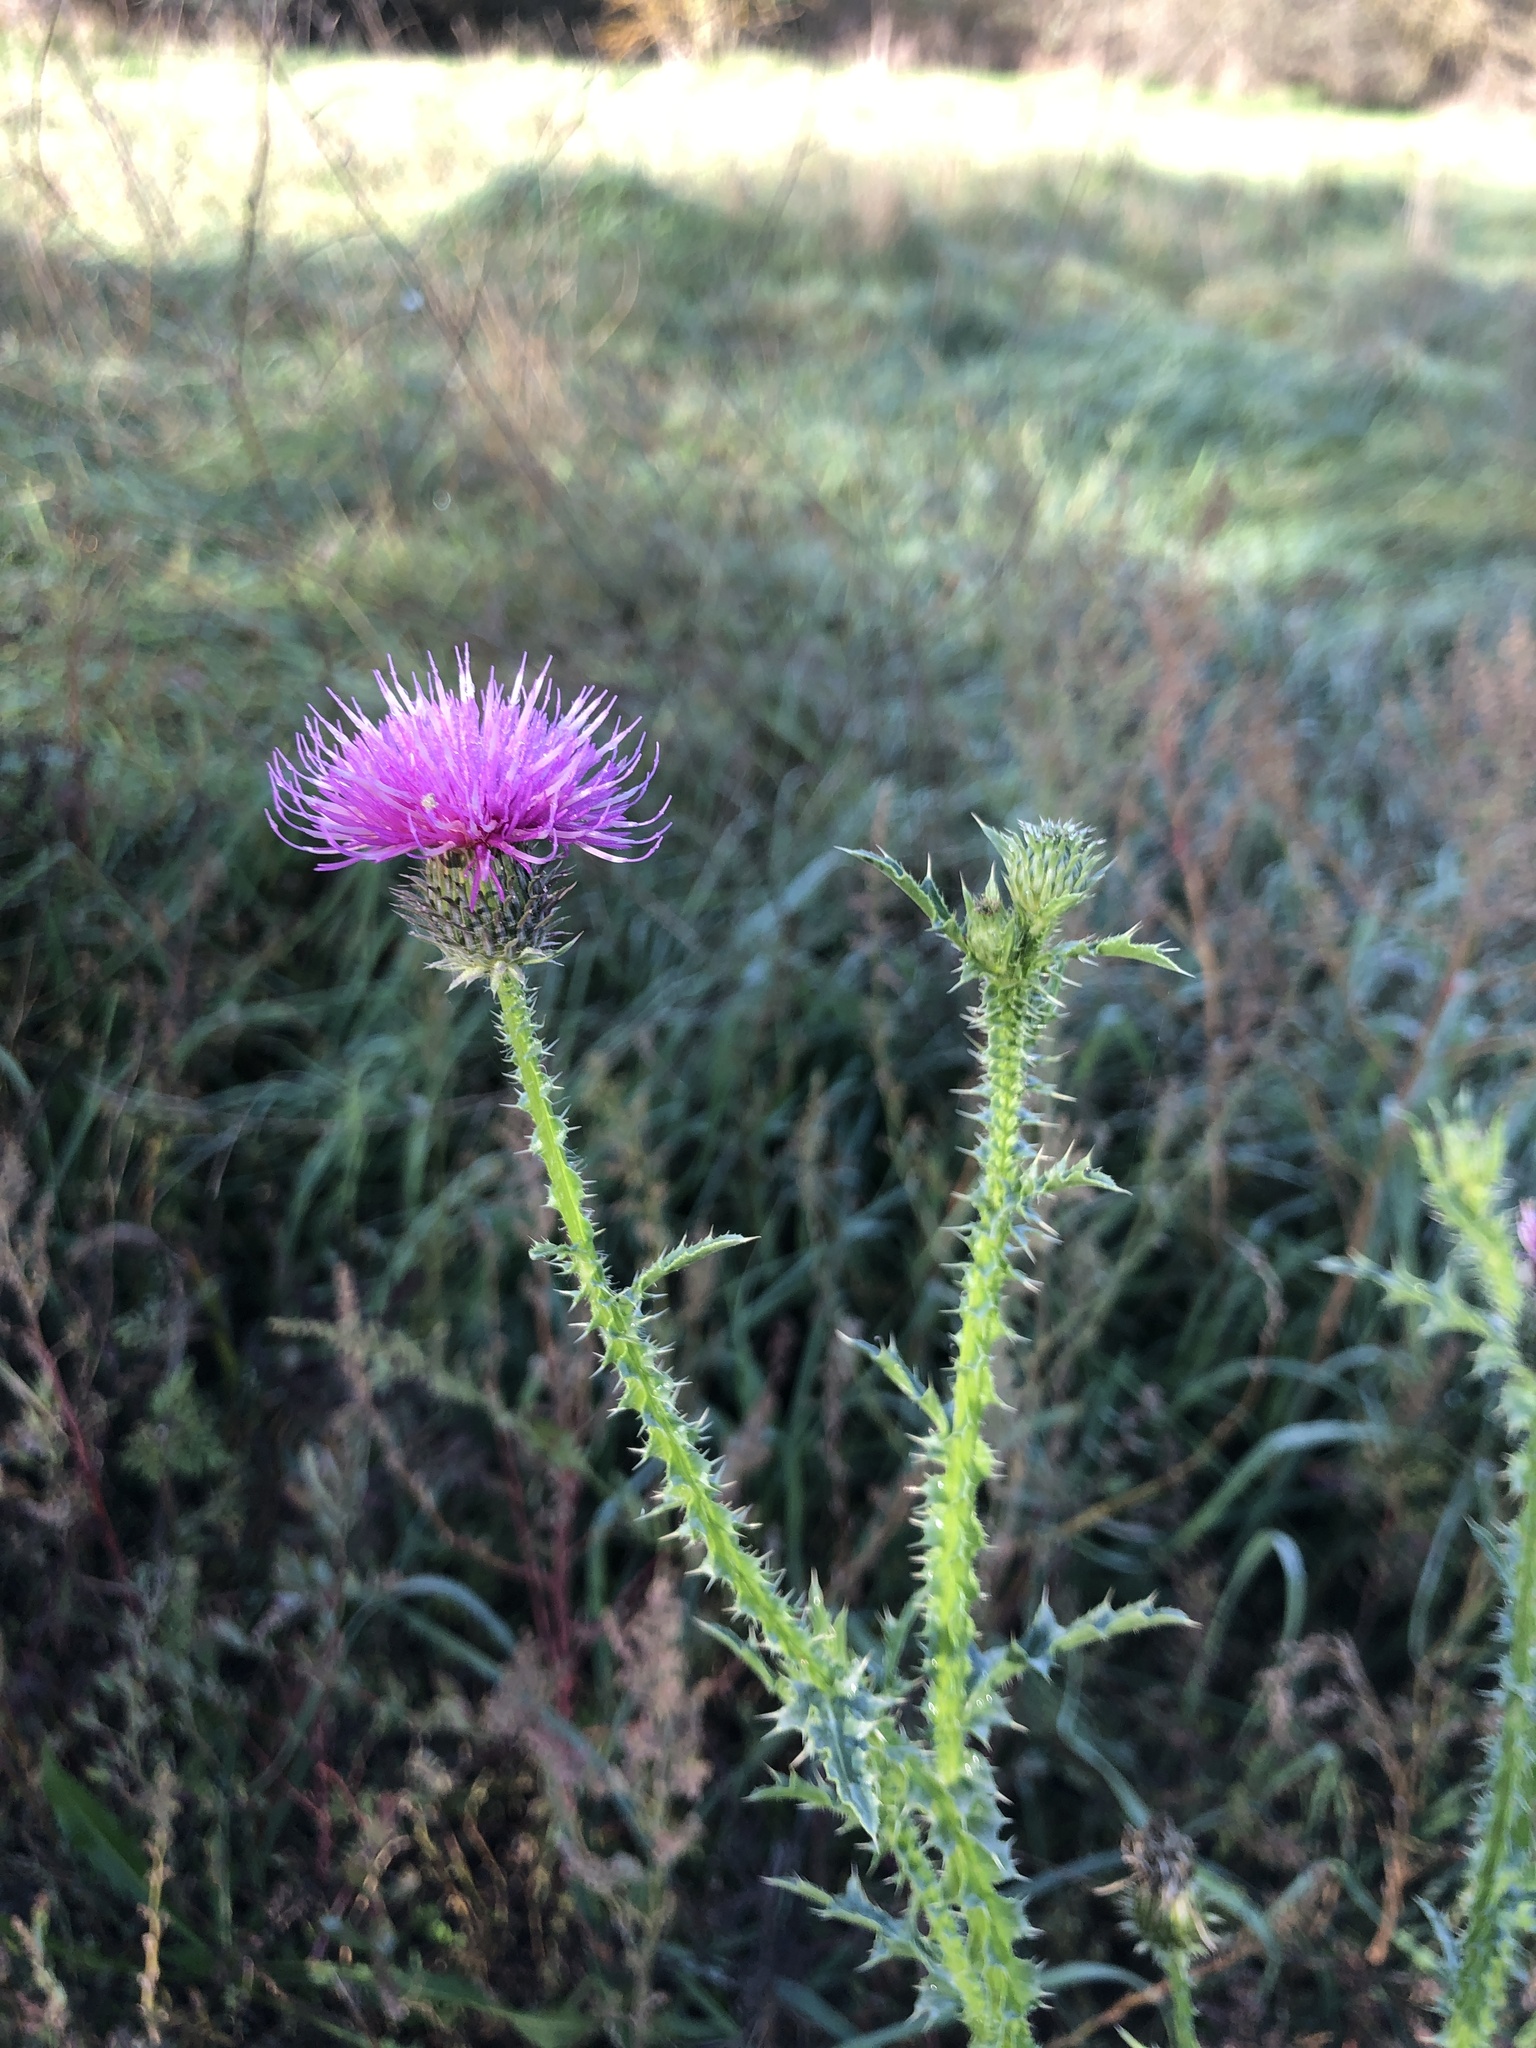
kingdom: Plantae
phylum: Tracheophyta
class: Magnoliopsida
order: Asterales
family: Asteraceae
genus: Carduus
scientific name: Carduus acanthoides
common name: Plumeless thistle
